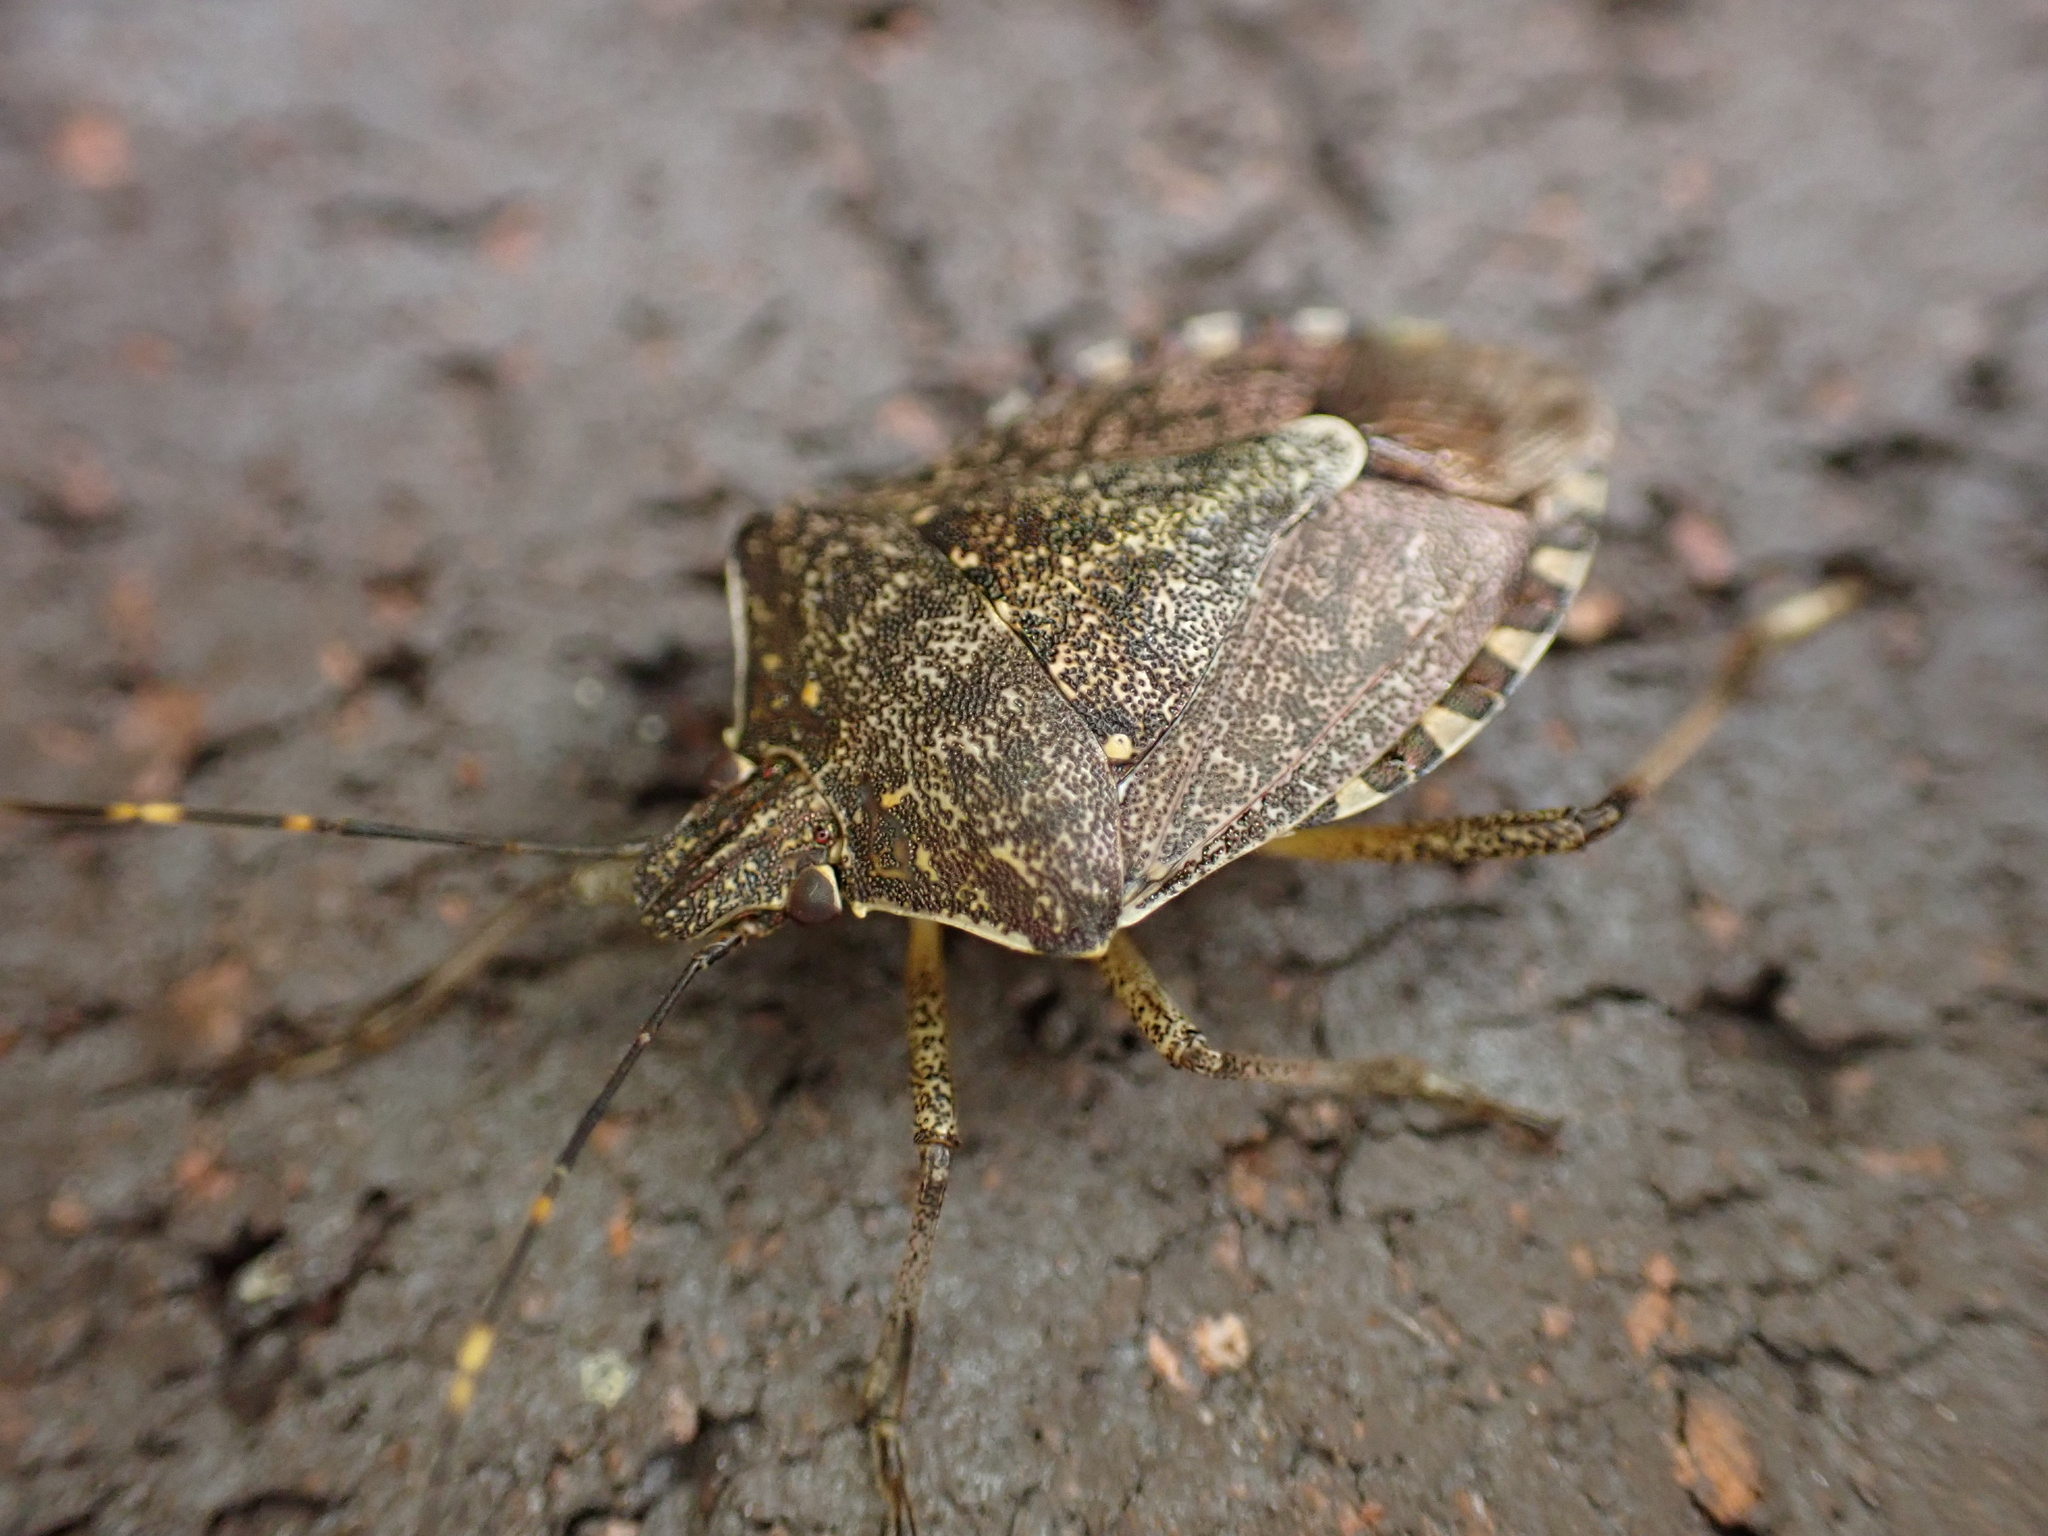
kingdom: Animalia
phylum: Arthropoda
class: Insecta
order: Hemiptera
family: Pentatomidae
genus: Halyomorpha
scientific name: Halyomorpha halys
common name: Brown marmorated stink bug
